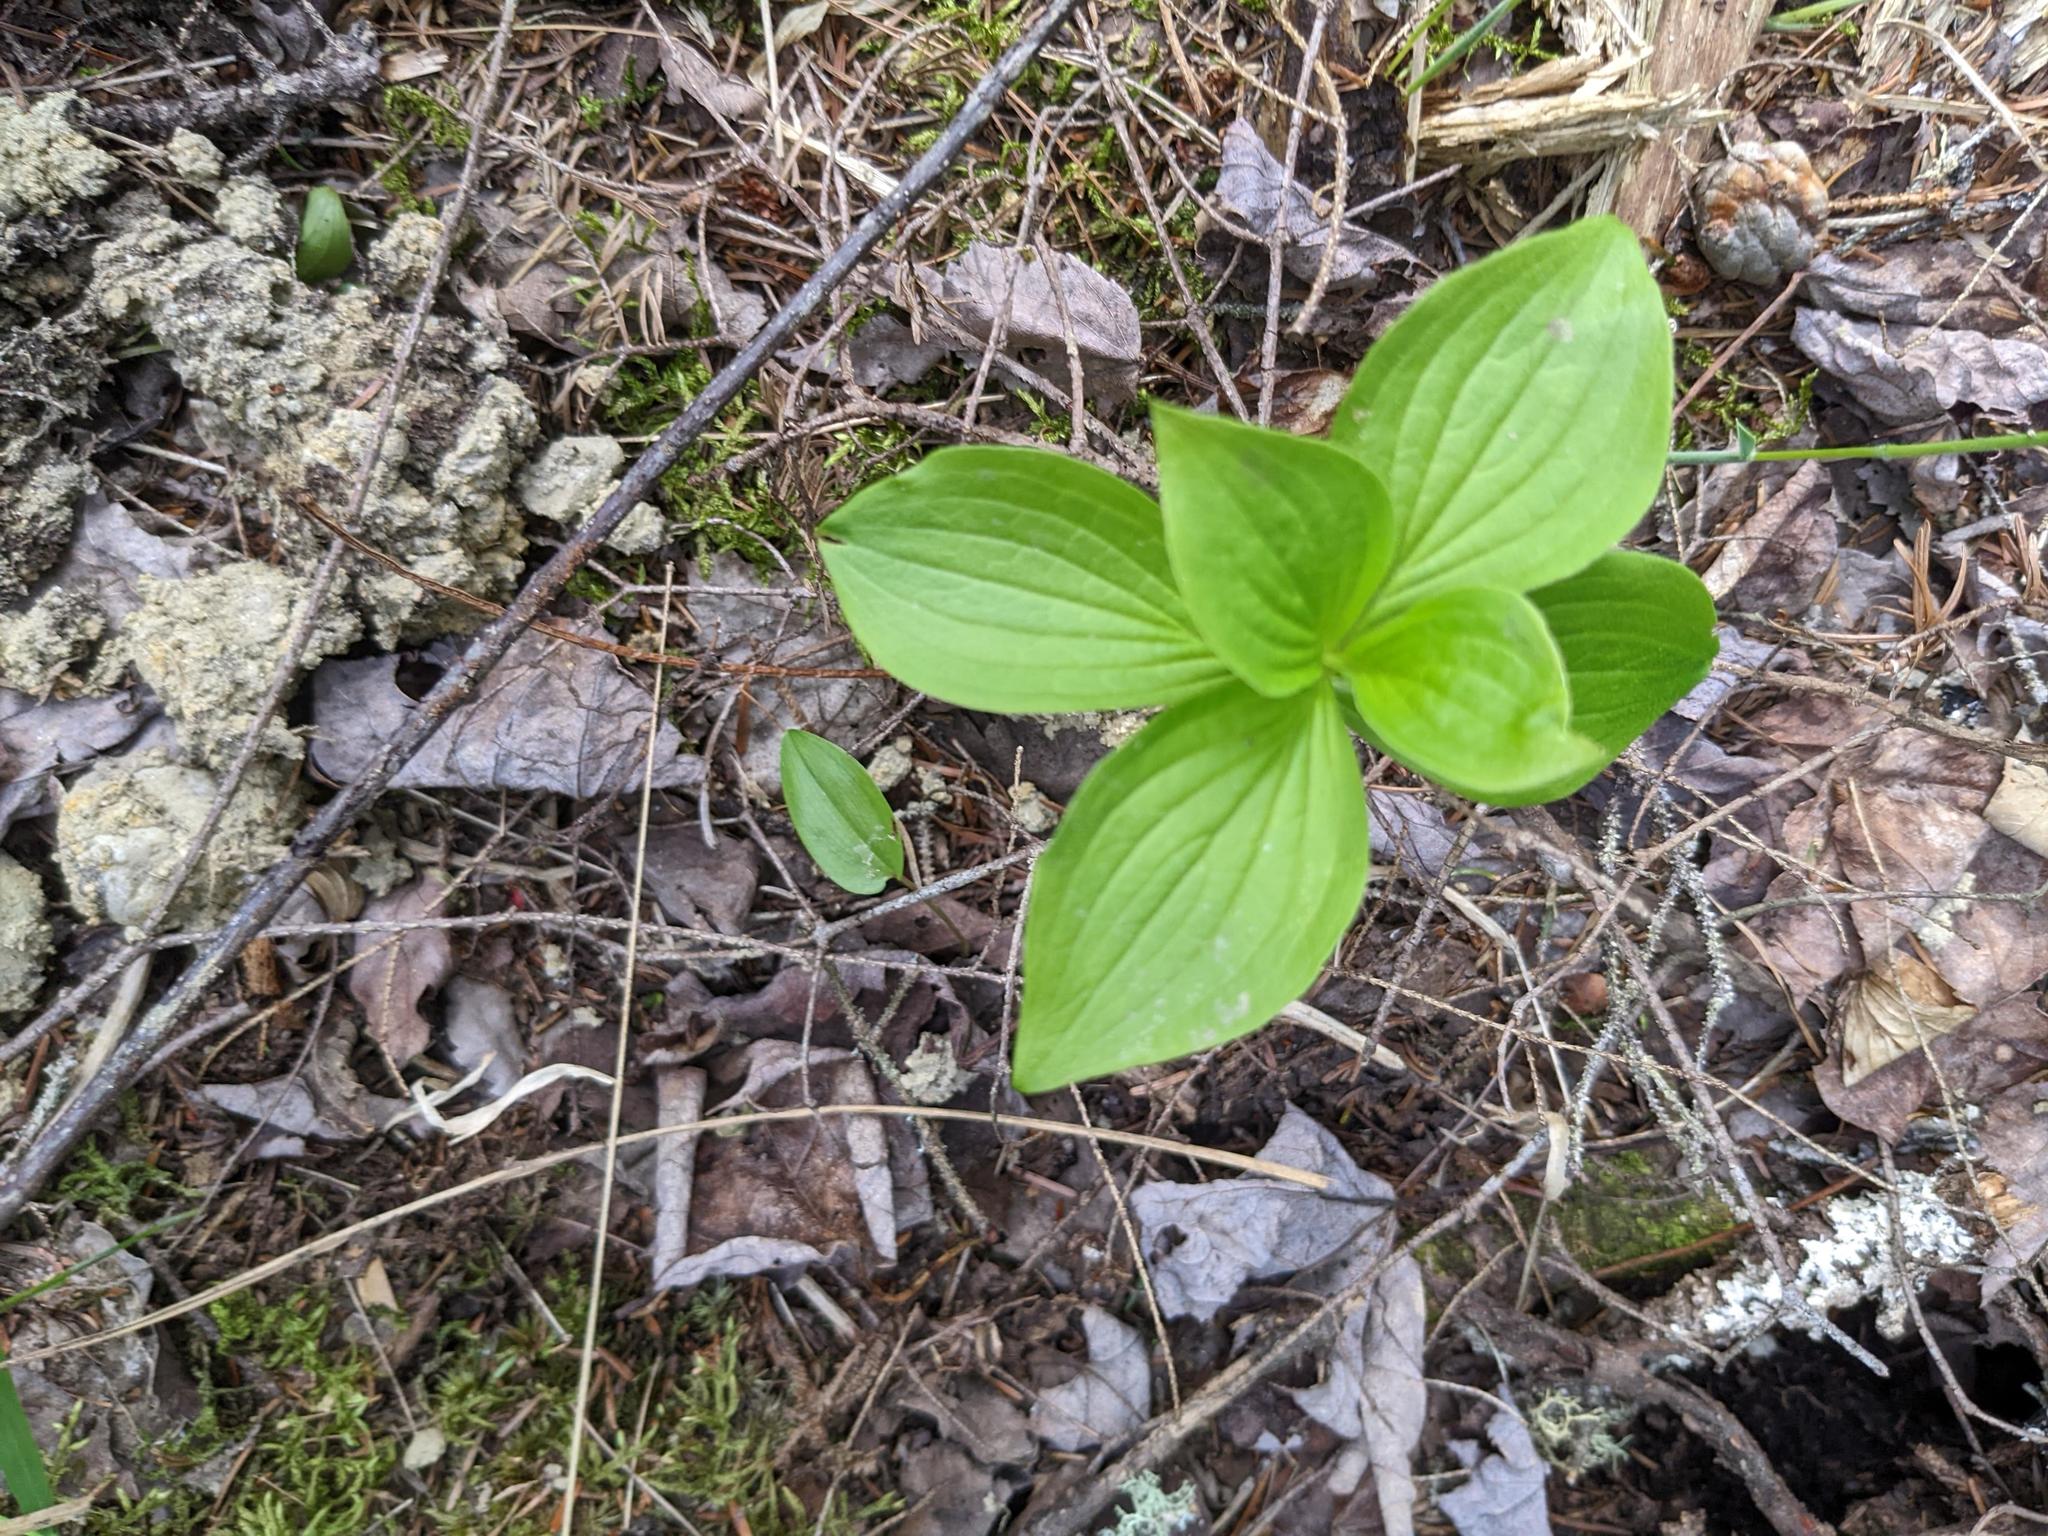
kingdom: Plantae
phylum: Tracheophyta
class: Magnoliopsida
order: Cornales
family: Cornaceae
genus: Cornus
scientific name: Cornus canadensis
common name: Creeping dogwood
